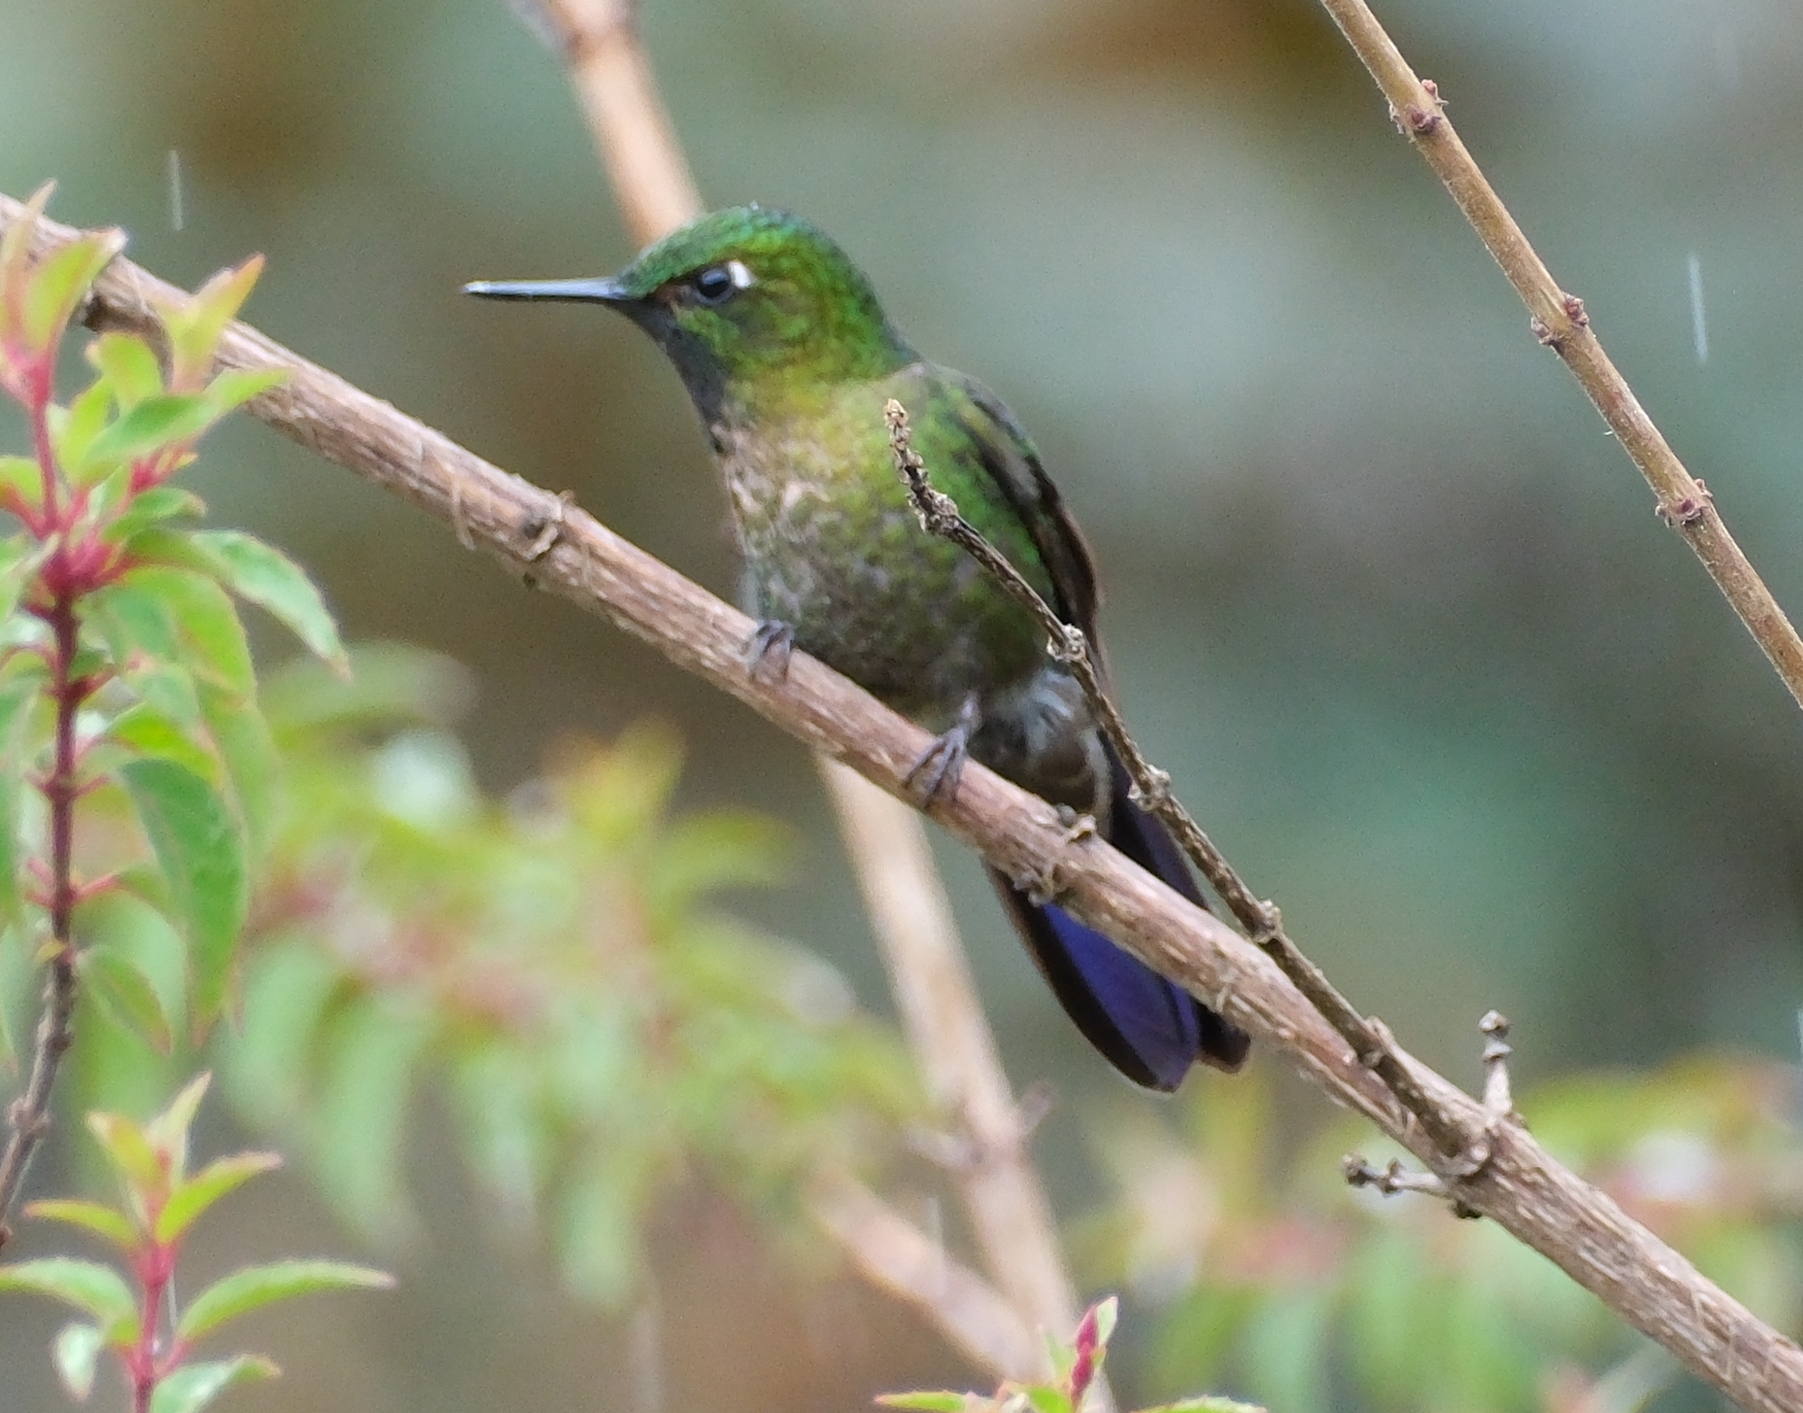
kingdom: Animalia
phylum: Chordata
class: Aves
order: Apodiformes
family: Trochilidae
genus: Metallura
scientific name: Metallura tyrianthina
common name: Tyrian metaltail
